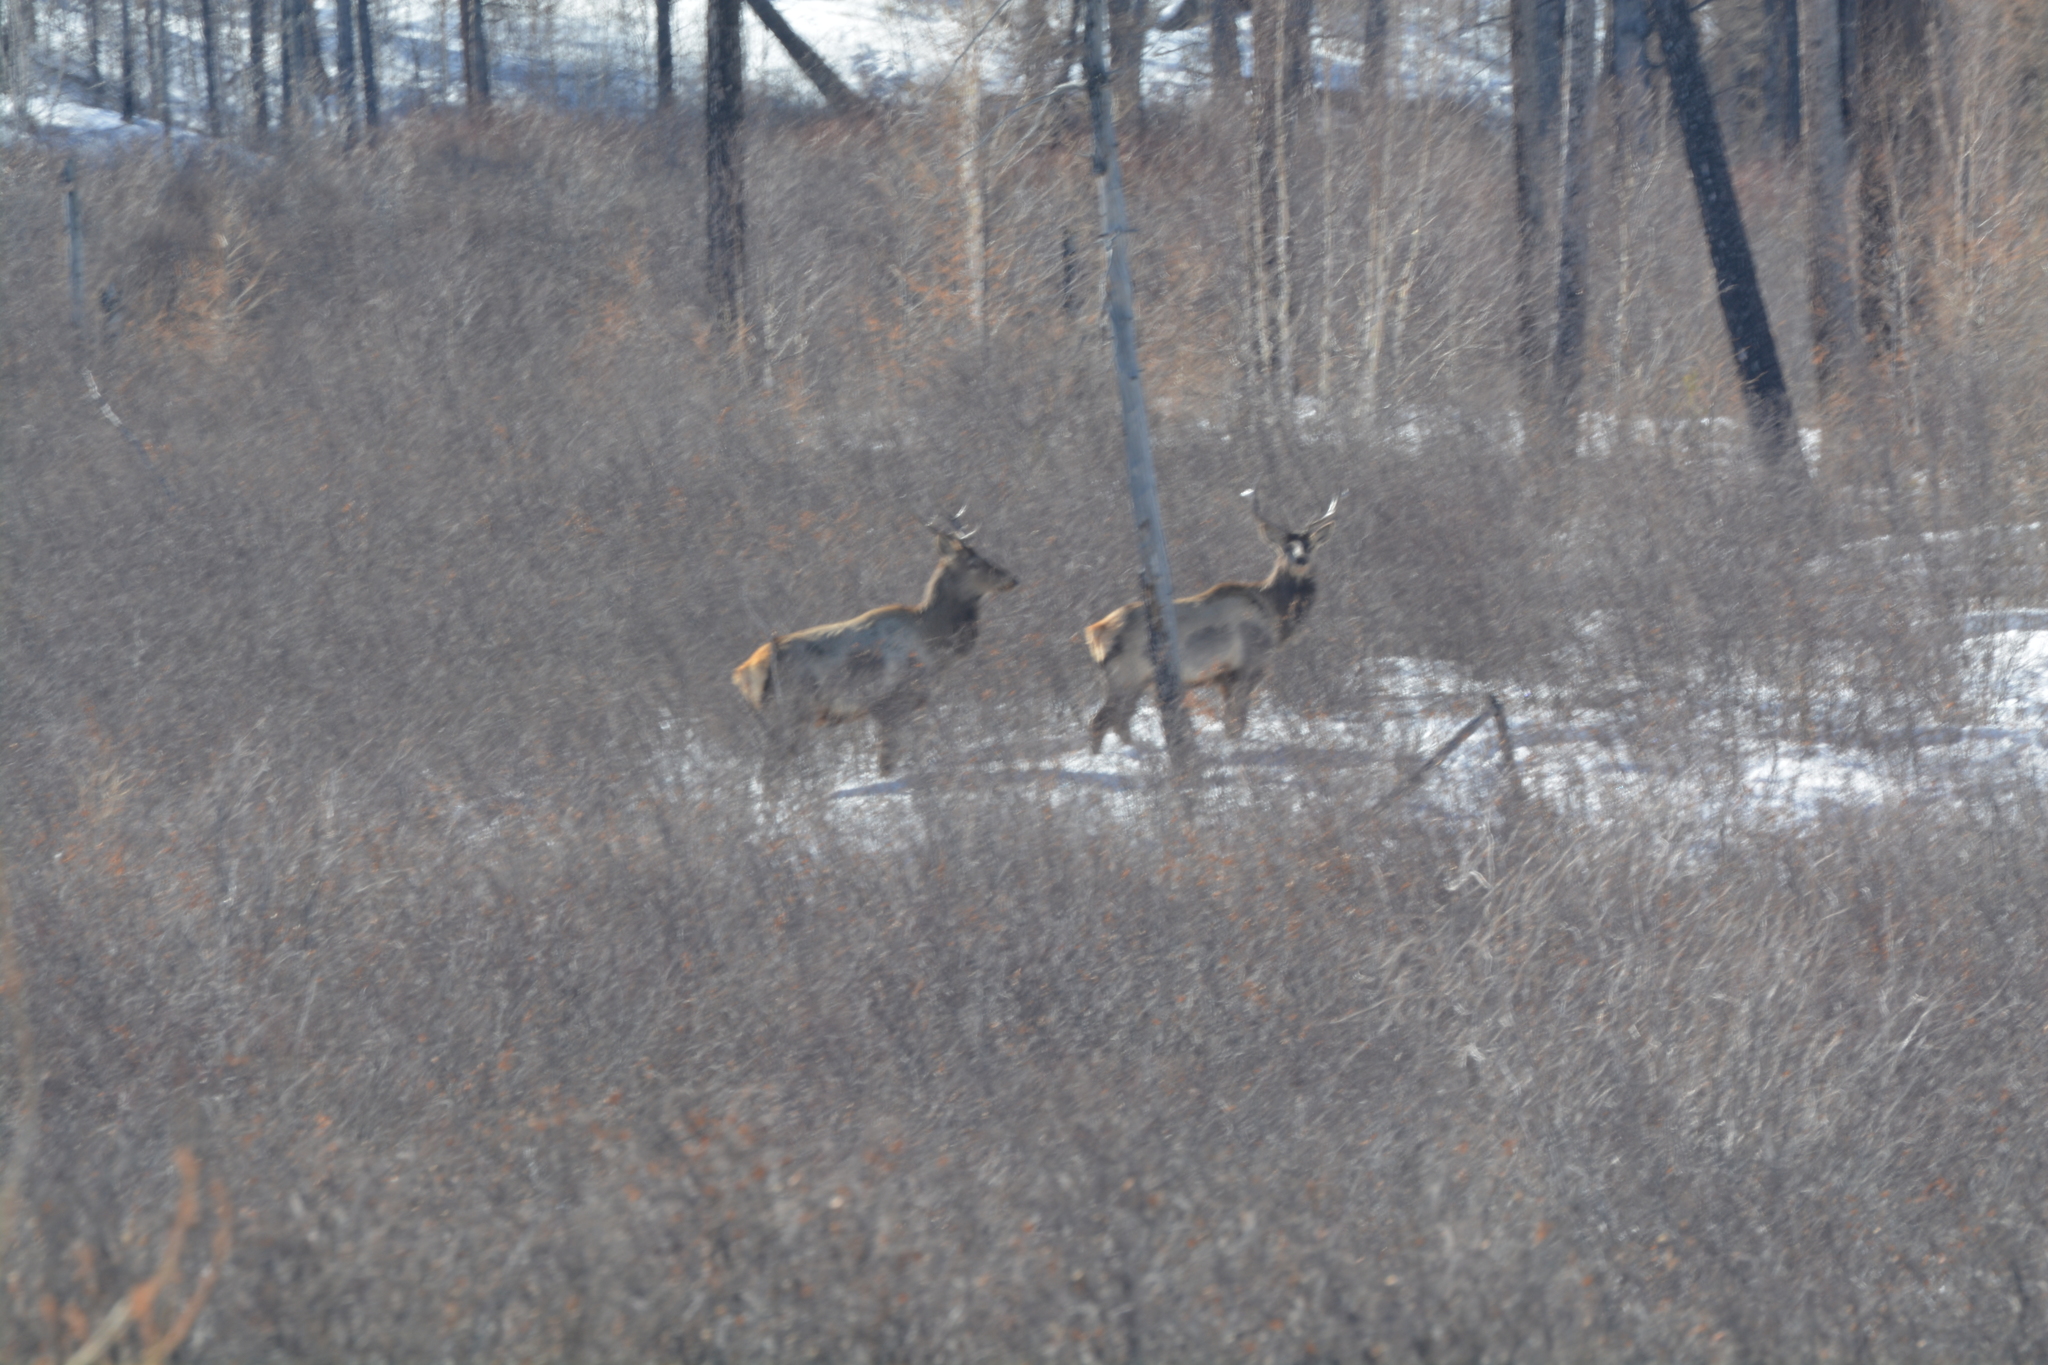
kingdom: Animalia
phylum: Chordata
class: Mammalia
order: Artiodactyla
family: Cervidae
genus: Cervus
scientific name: Cervus elaphus
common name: Red deer
